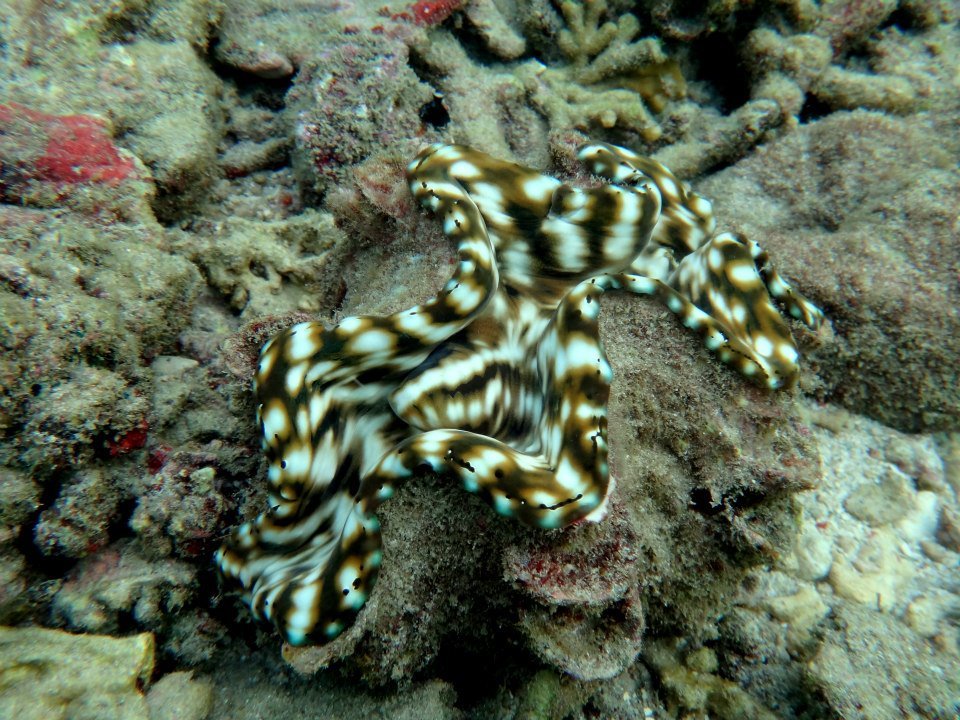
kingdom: Animalia
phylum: Mollusca
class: Bivalvia
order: Cardiida
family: Cardiidae
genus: Tridacna
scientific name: Tridacna squamosa
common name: Fluted clam
